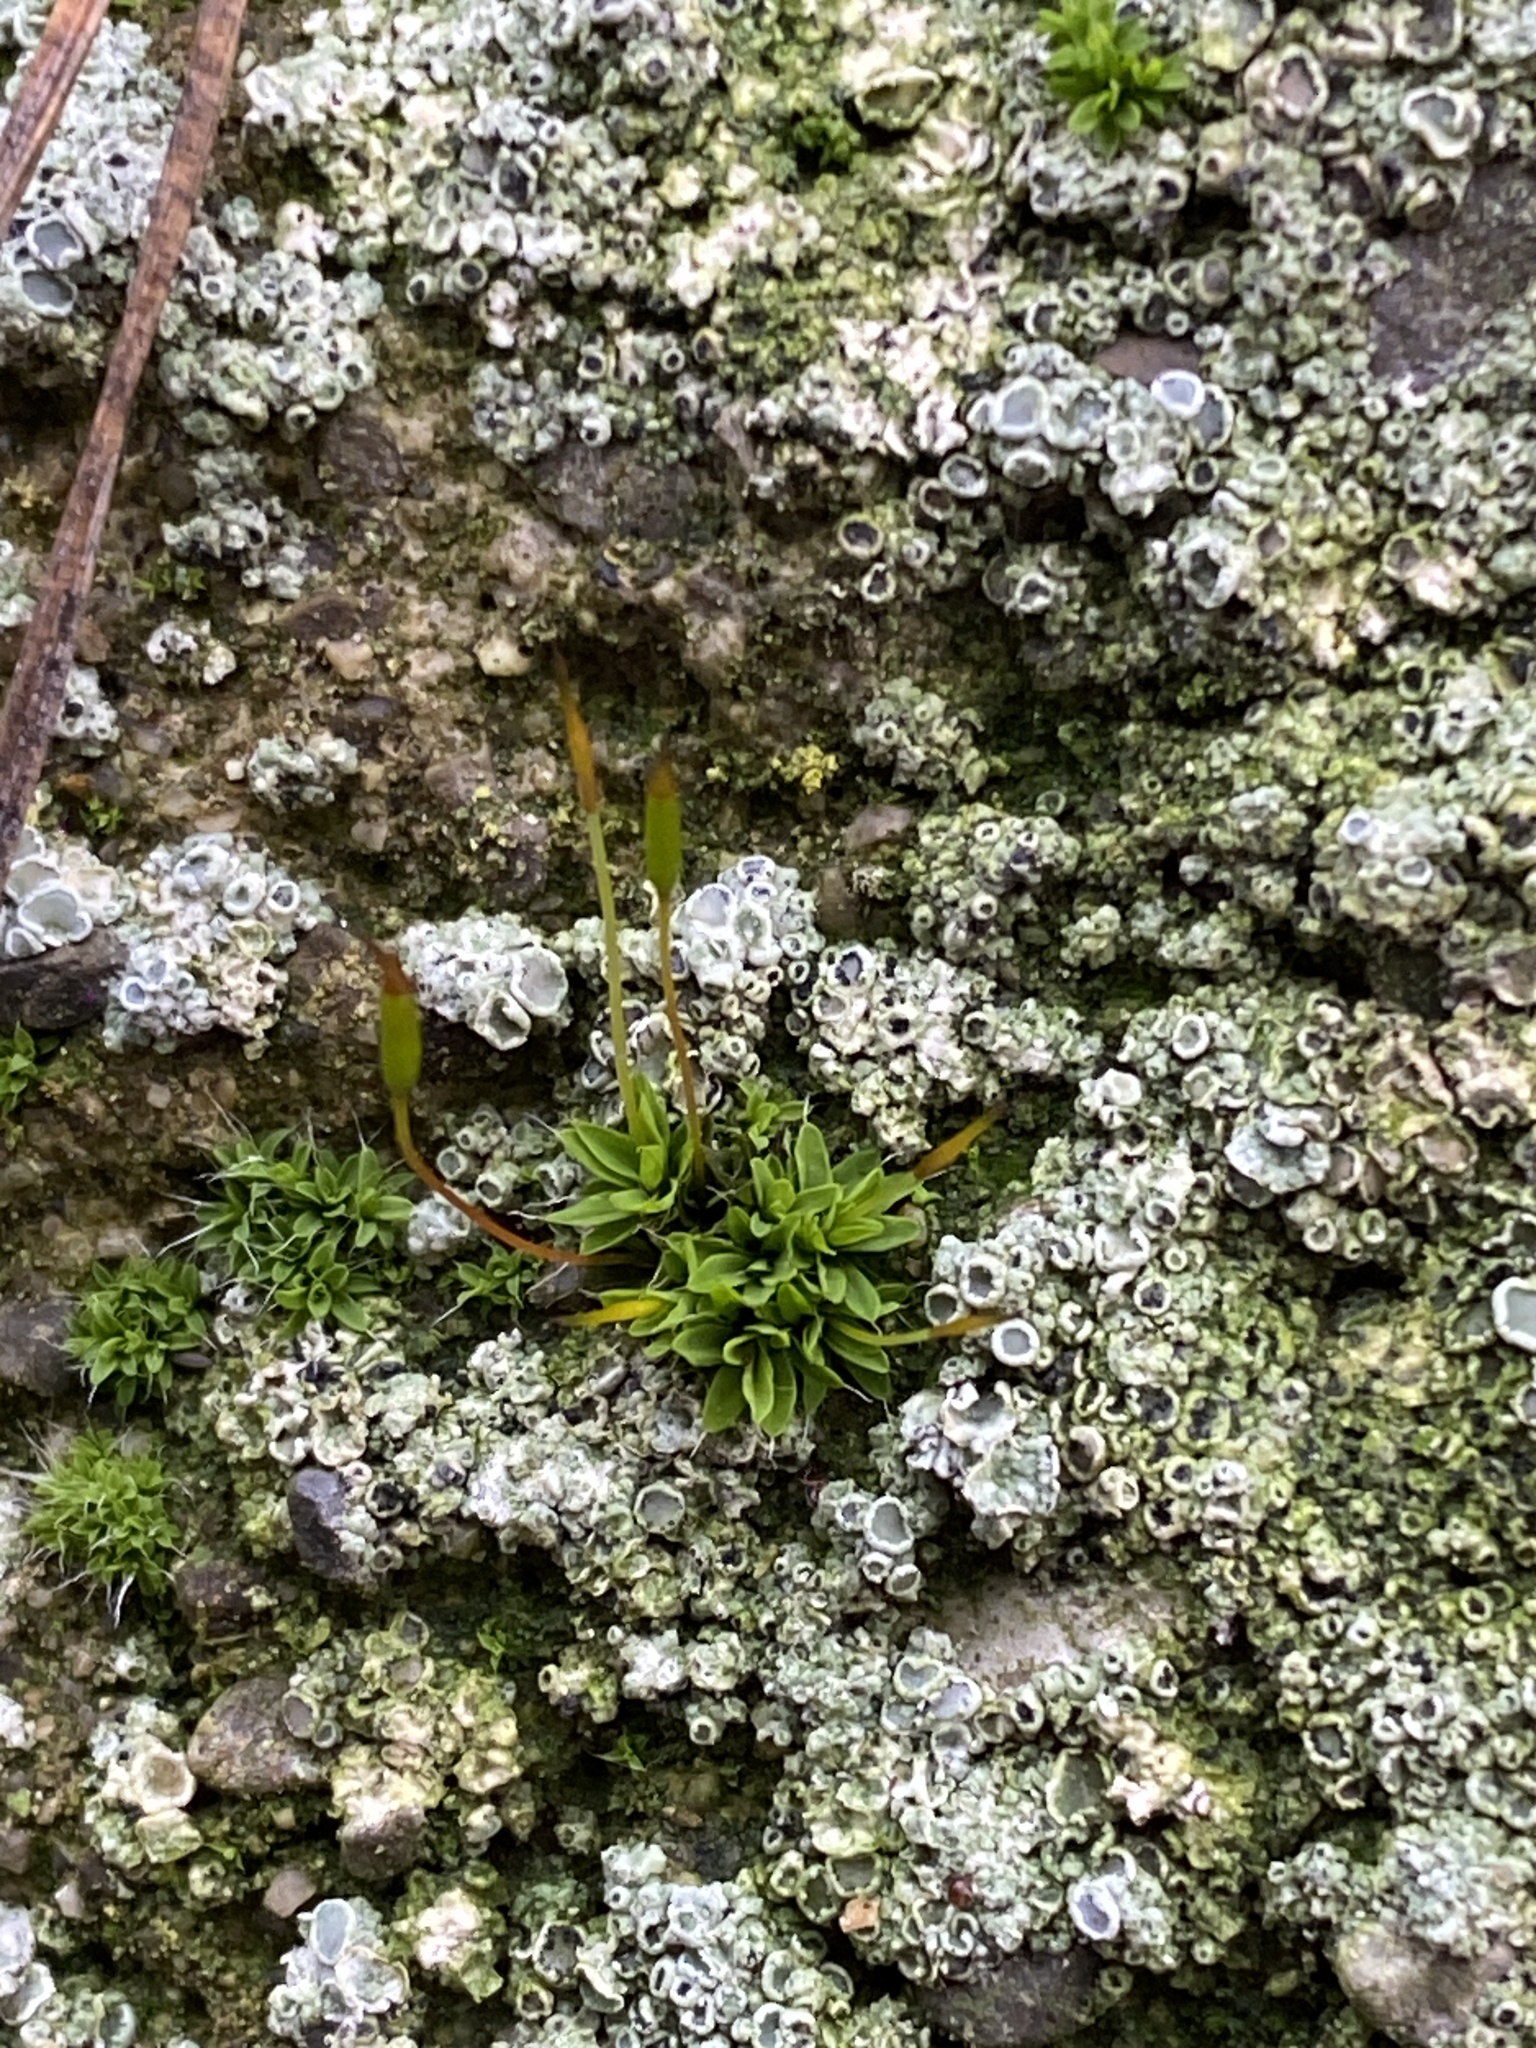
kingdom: Plantae
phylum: Bryophyta
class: Bryopsida
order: Pottiales
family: Pottiaceae
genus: Tortula
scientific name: Tortula muralis
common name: Wall screw-moss
